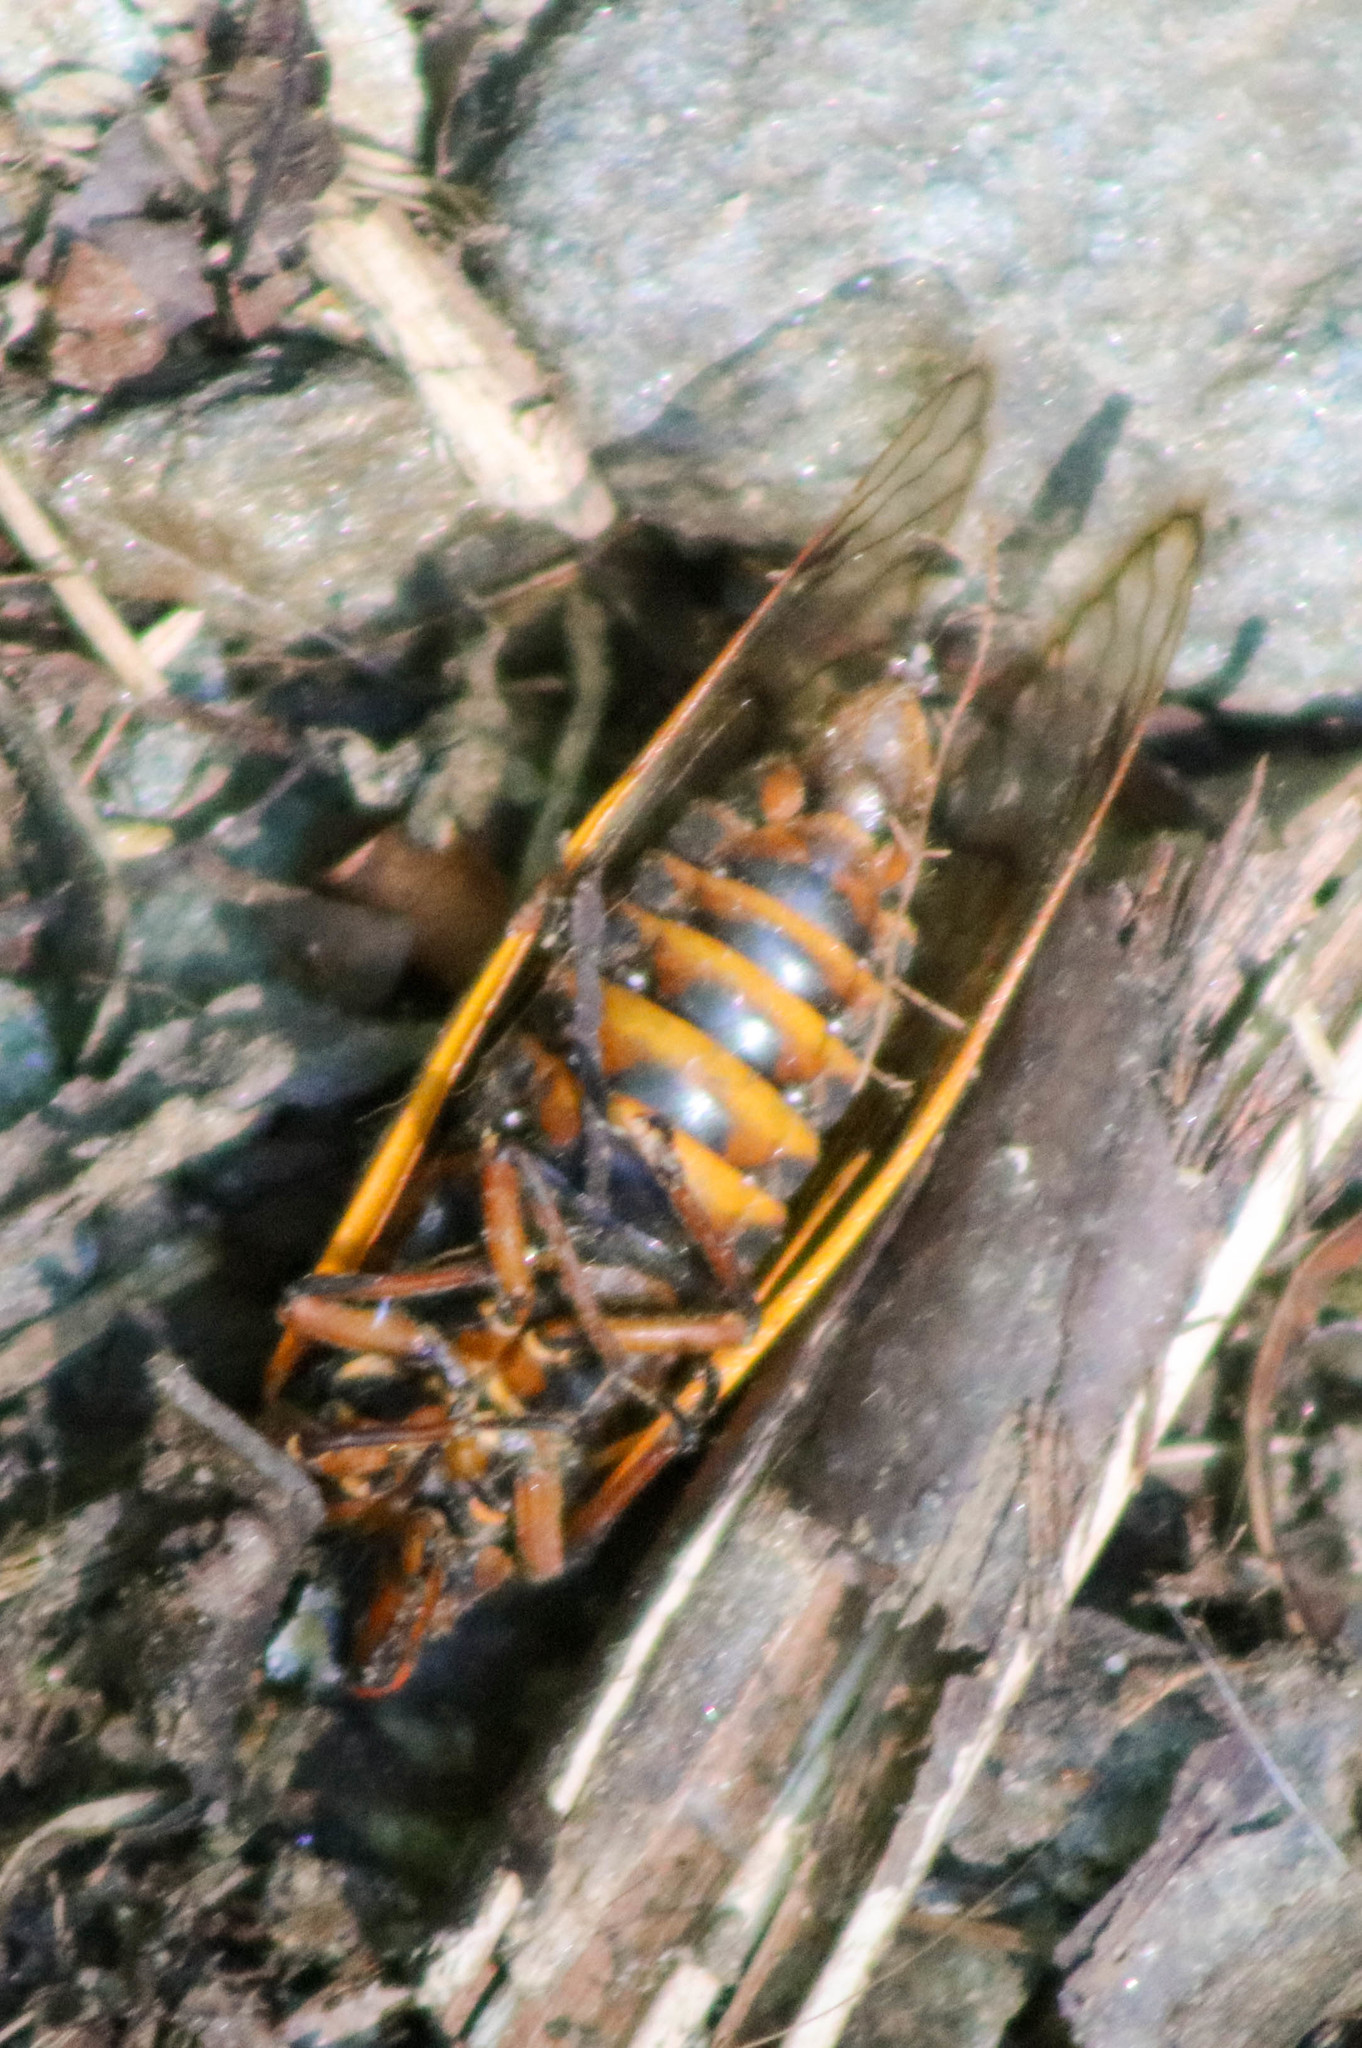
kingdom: Animalia
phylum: Arthropoda
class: Insecta
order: Hemiptera
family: Cicadidae
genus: Magicicada
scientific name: Magicicada septendecim
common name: Periodical cicada
